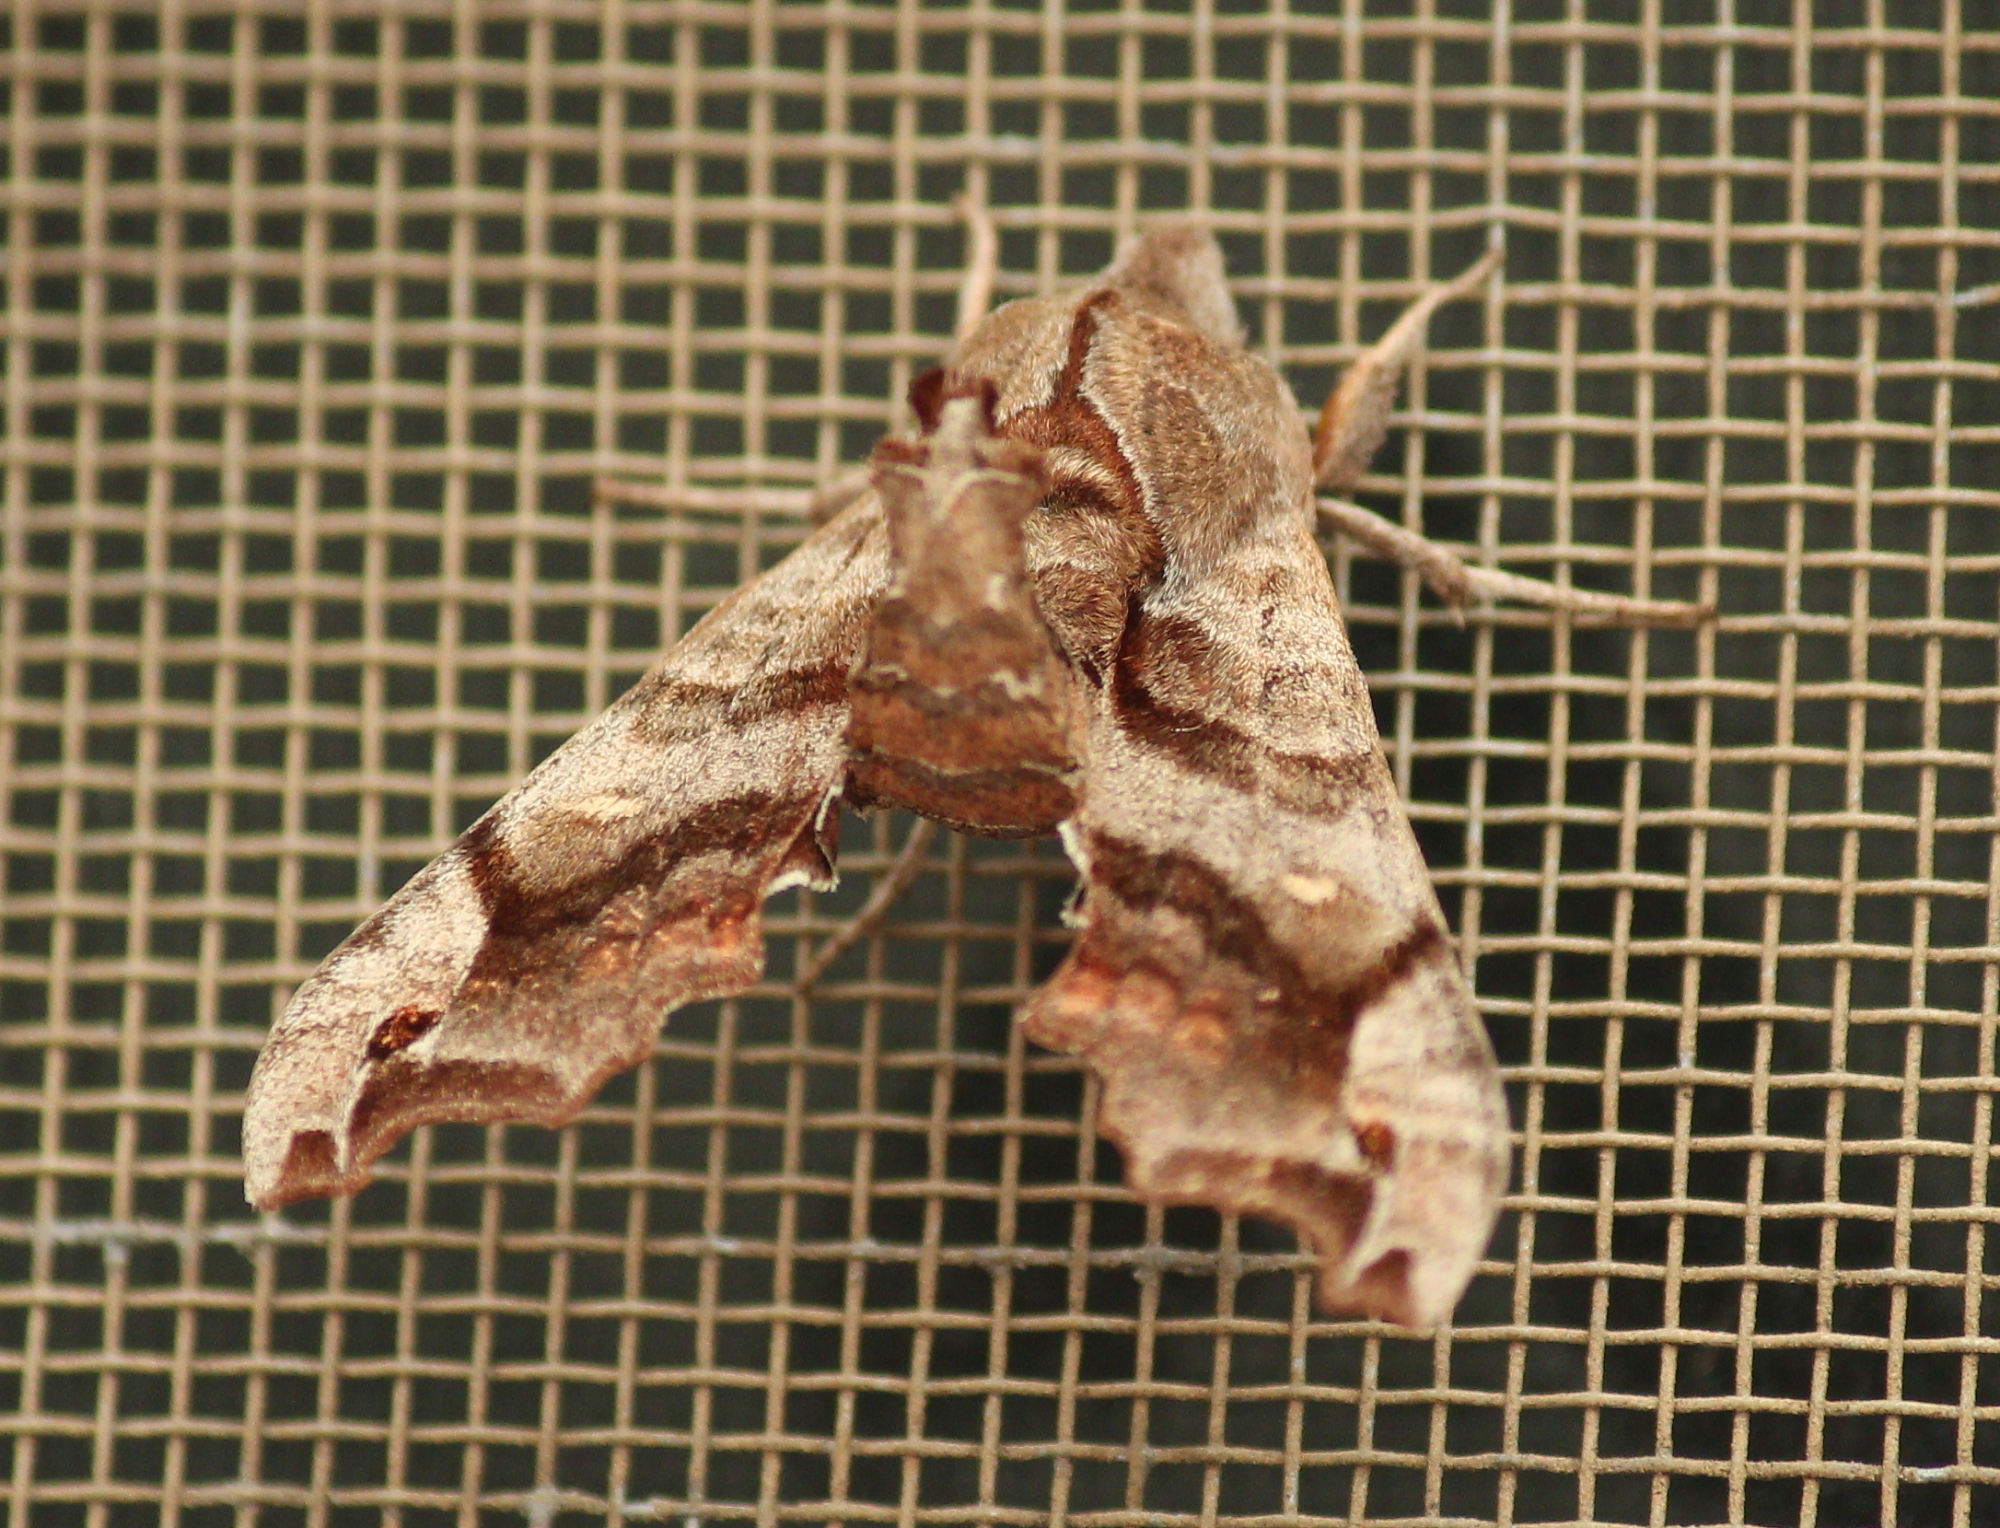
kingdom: Animalia
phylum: Arthropoda
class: Insecta
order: Lepidoptera
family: Sphingidae
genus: Deidamia
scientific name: Deidamia inscriptum
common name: Lettered sphinx
